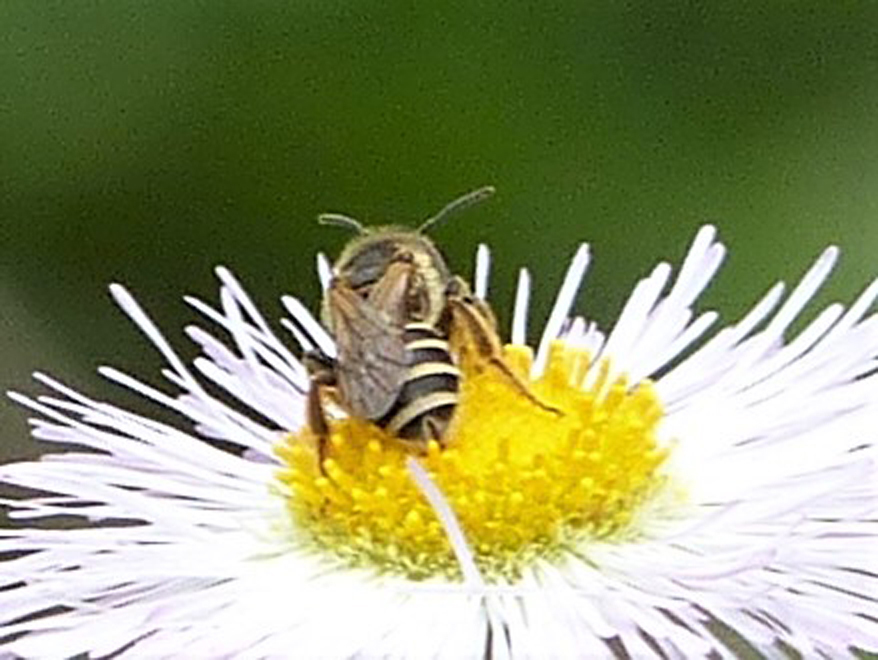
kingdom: Animalia
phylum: Arthropoda
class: Insecta
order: Hymenoptera
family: Halictidae
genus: Halictus
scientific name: Halictus ligatus
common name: Ligated furrow bee
